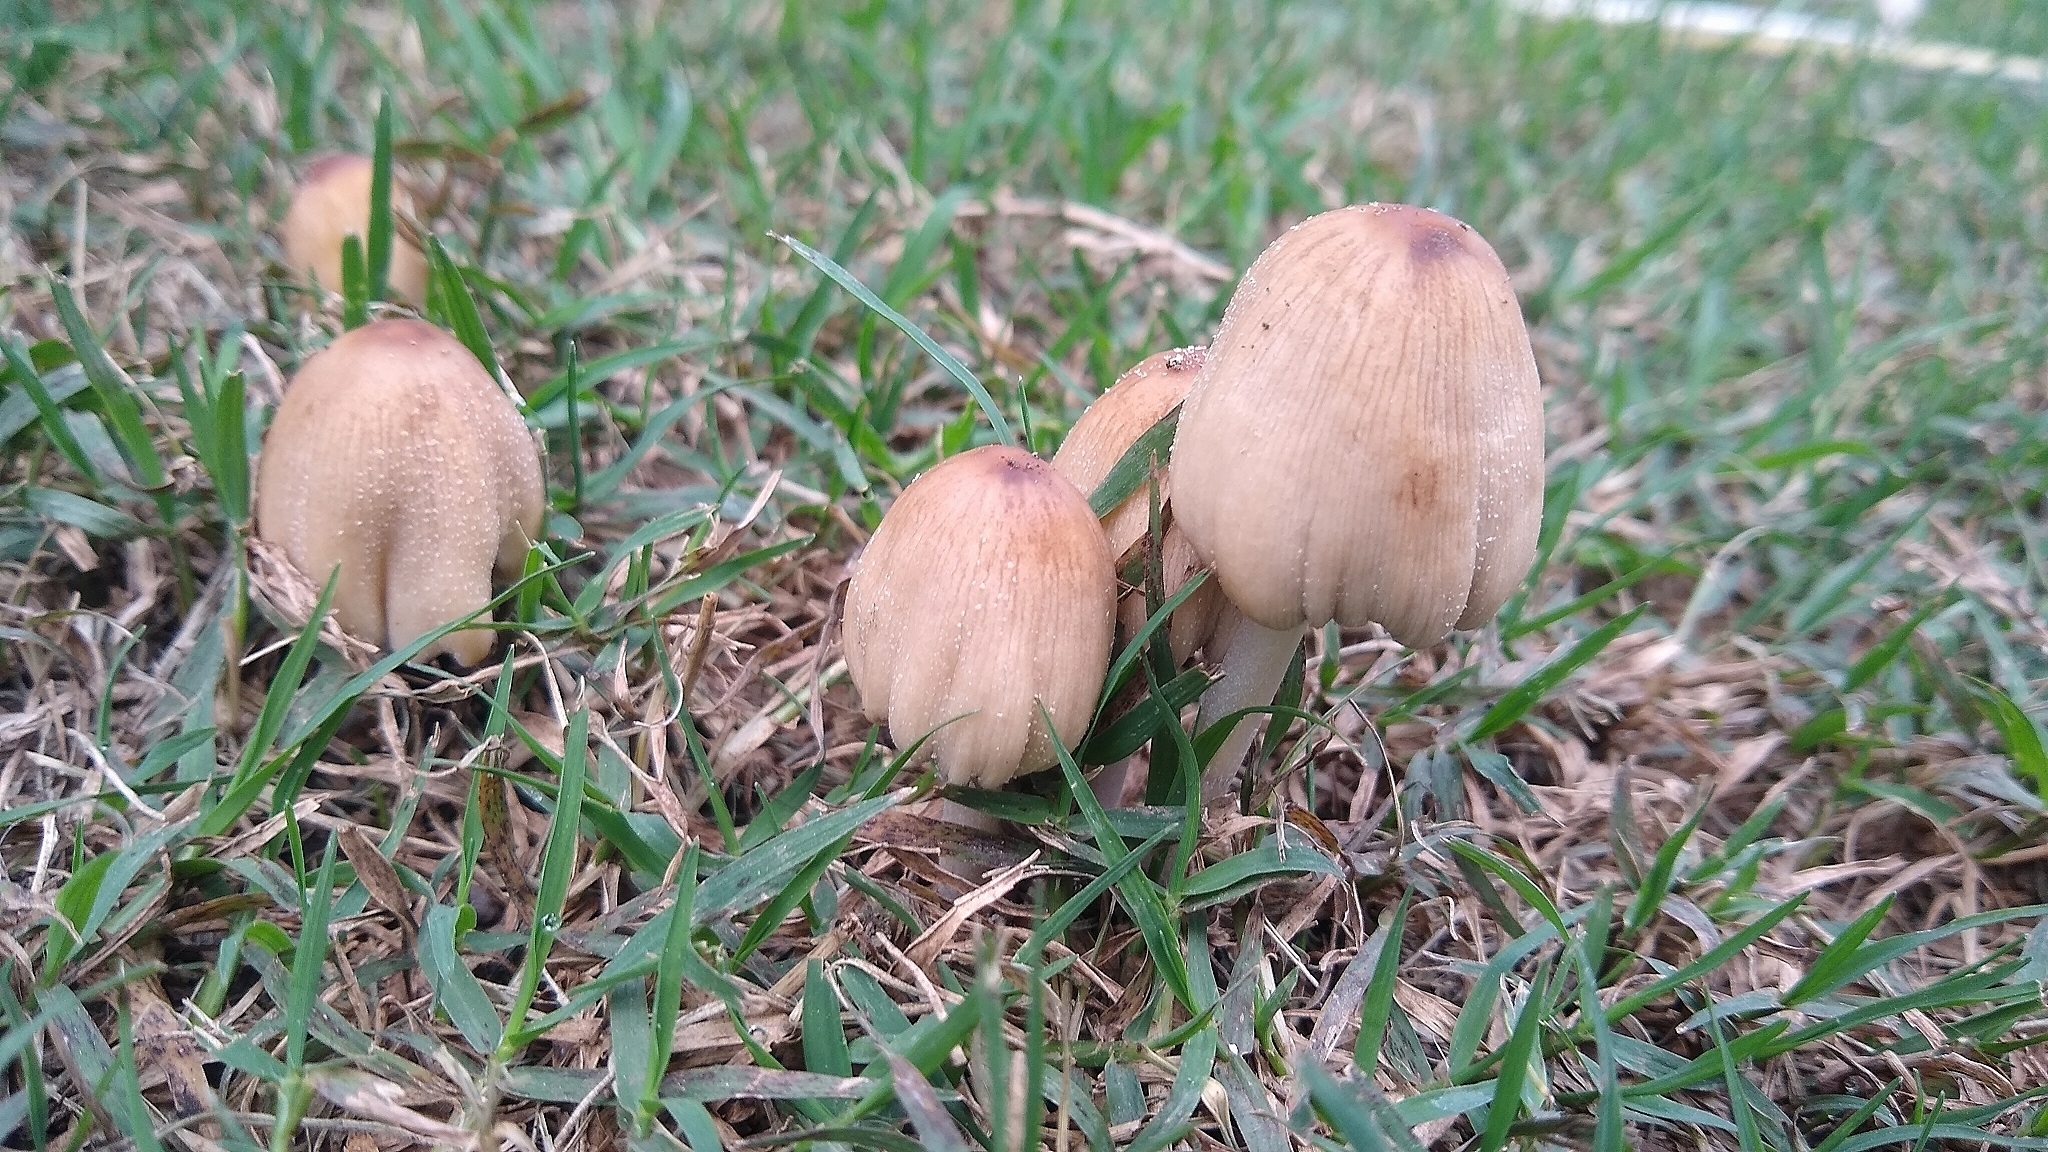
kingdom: Fungi
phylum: Basidiomycota
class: Agaricomycetes
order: Agaricales
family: Psathyrellaceae
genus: Coprinellus
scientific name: Coprinellus micaceus
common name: Glistening ink-cap
